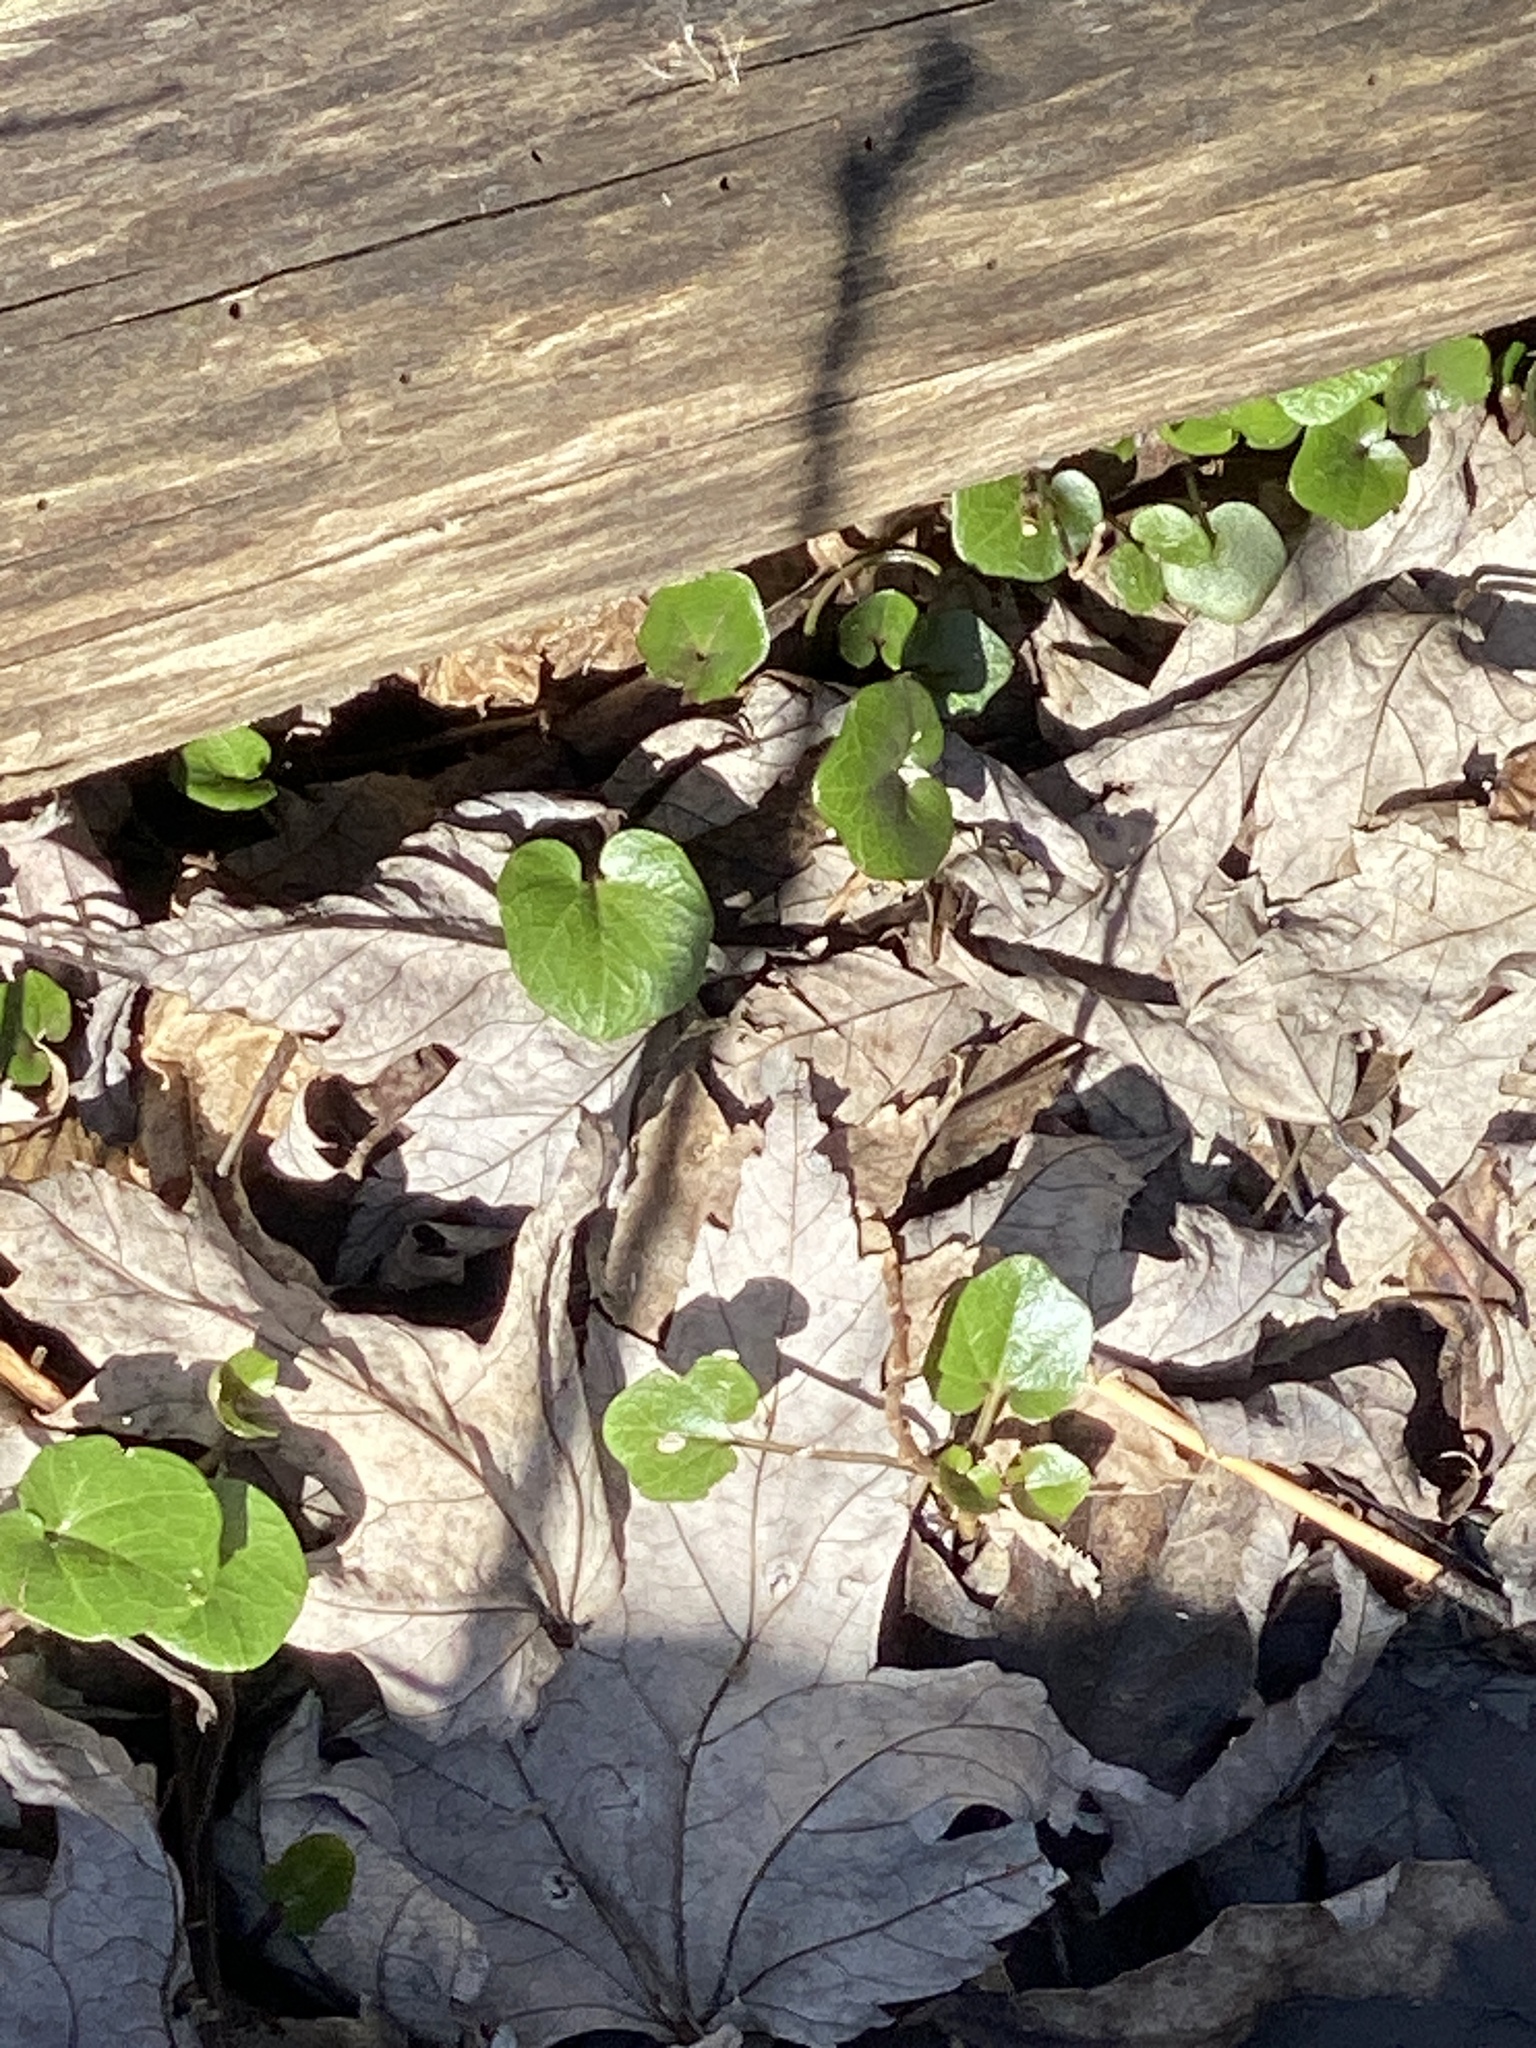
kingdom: Plantae
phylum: Tracheophyta
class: Magnoliopsida
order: Ranunculales
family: Ranunculaceae
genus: Ficaria
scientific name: Ficaria verna
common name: Lesser celandine
